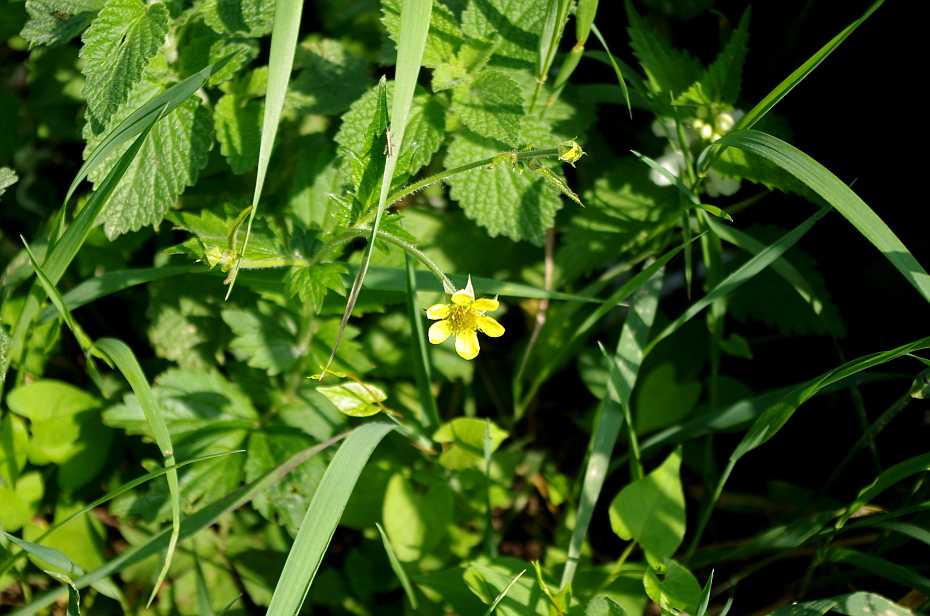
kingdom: Plantae
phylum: Tracheophyta
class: Magnoliopsida
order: Rosales
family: Rosaceae
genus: Geum
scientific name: Geum urbanum
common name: Wood avens
